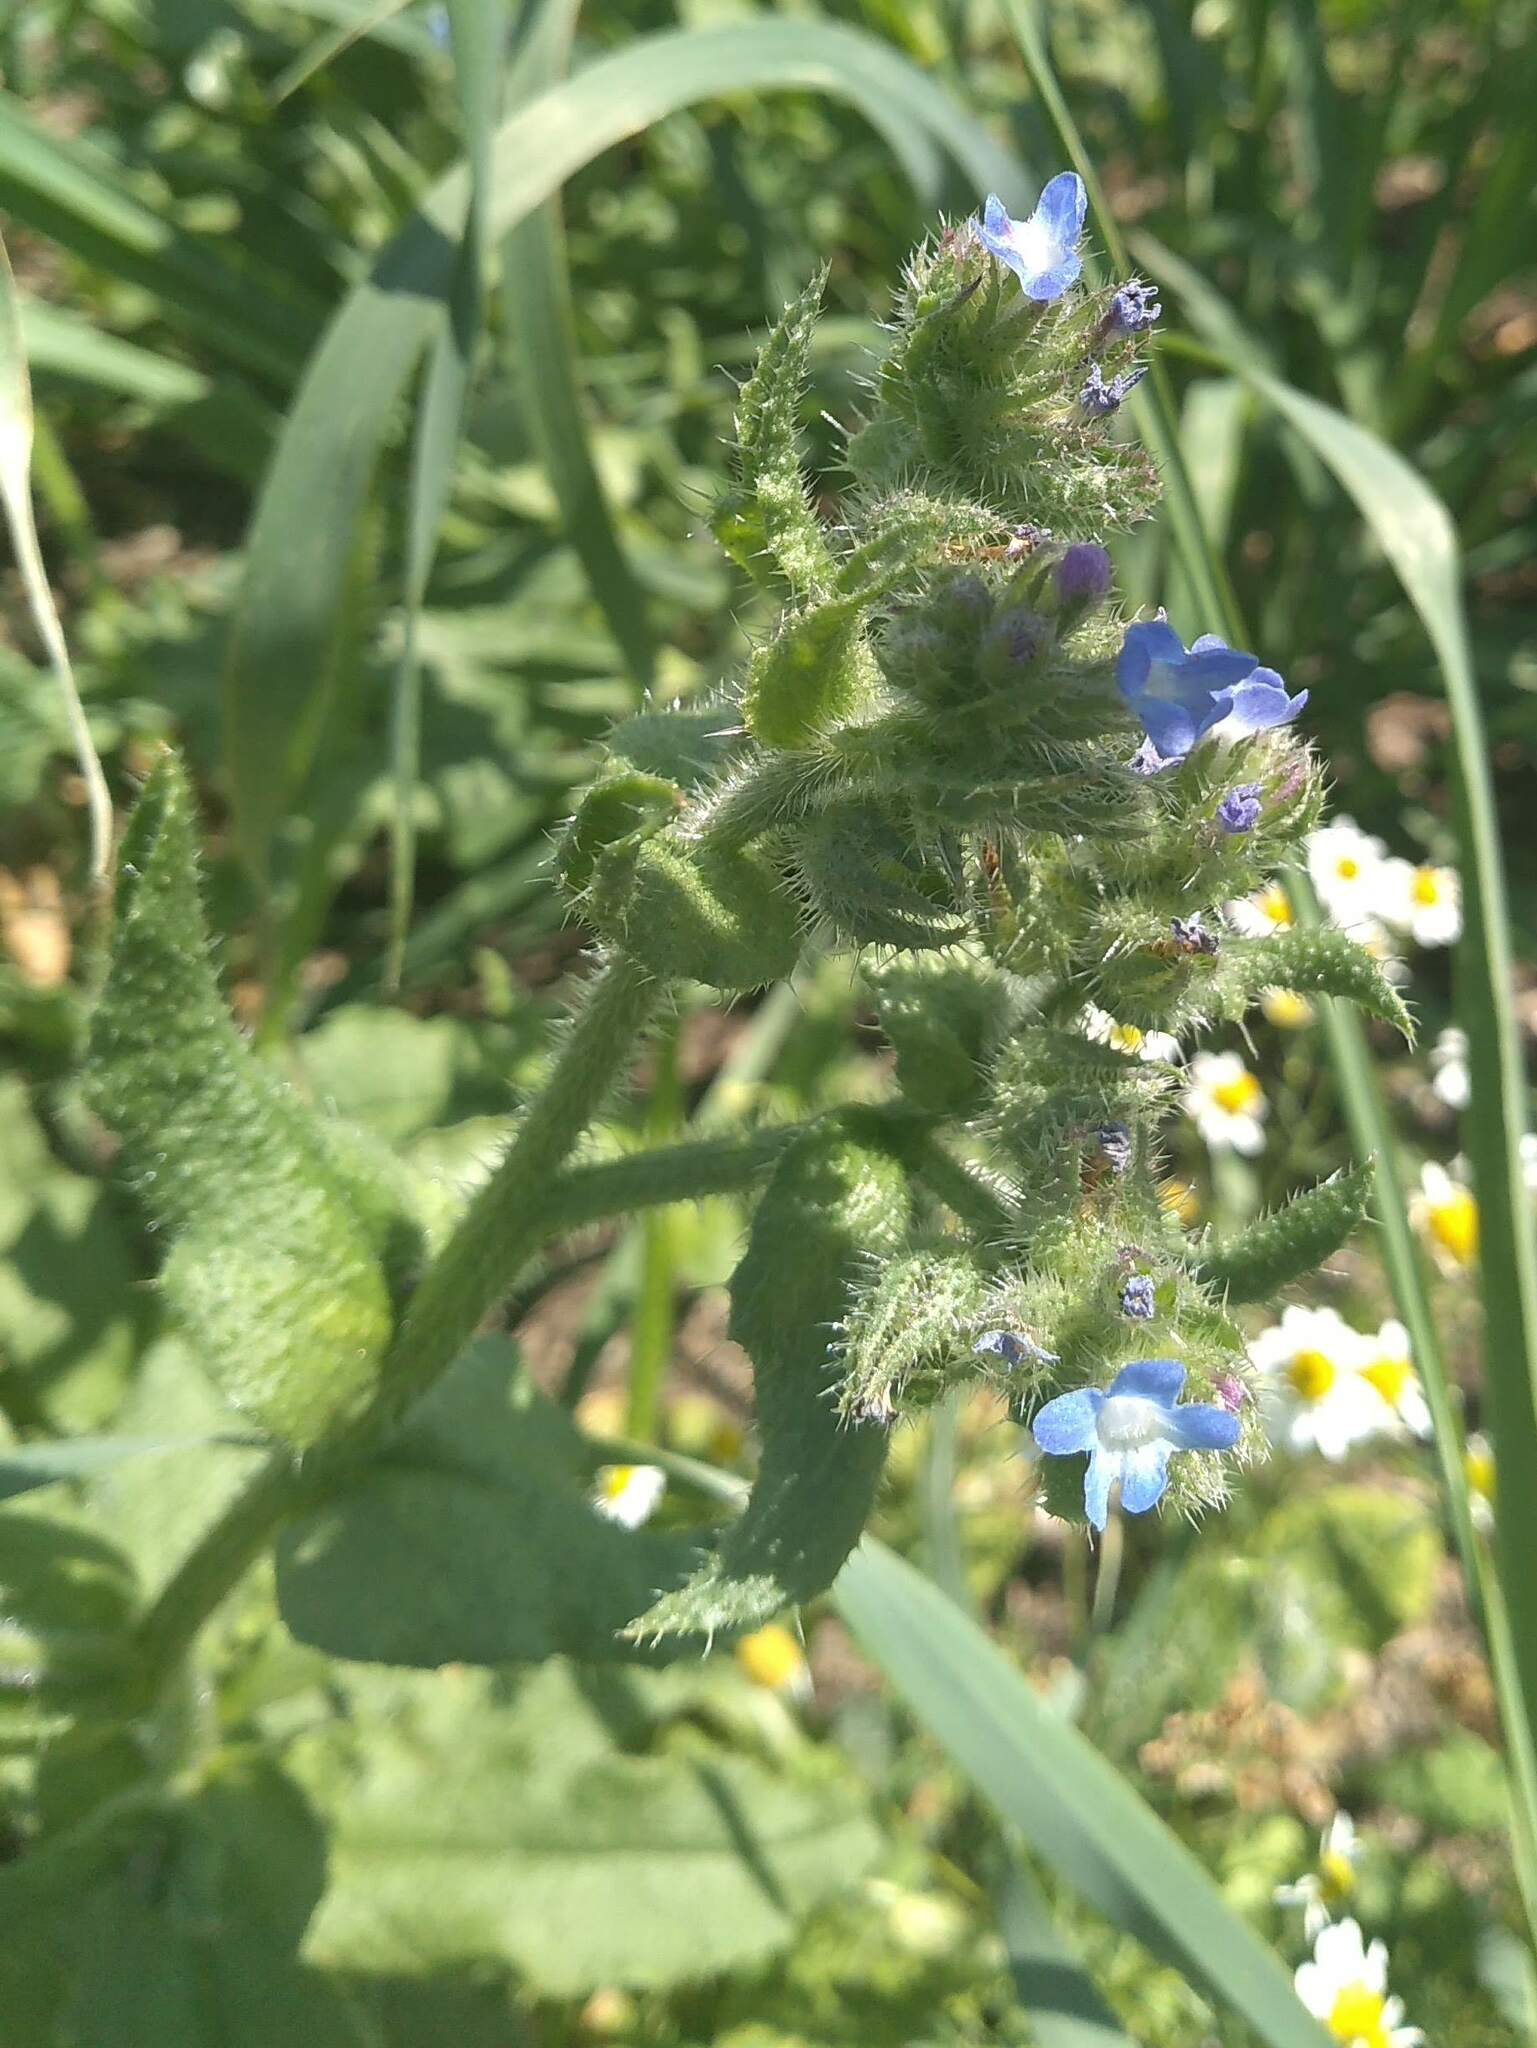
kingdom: Plantae
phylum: Tracheophyta
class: Magnoliopsida
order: Boraginales
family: Boraginaceae
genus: Lycopsis
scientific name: Lycopsis arvensis
